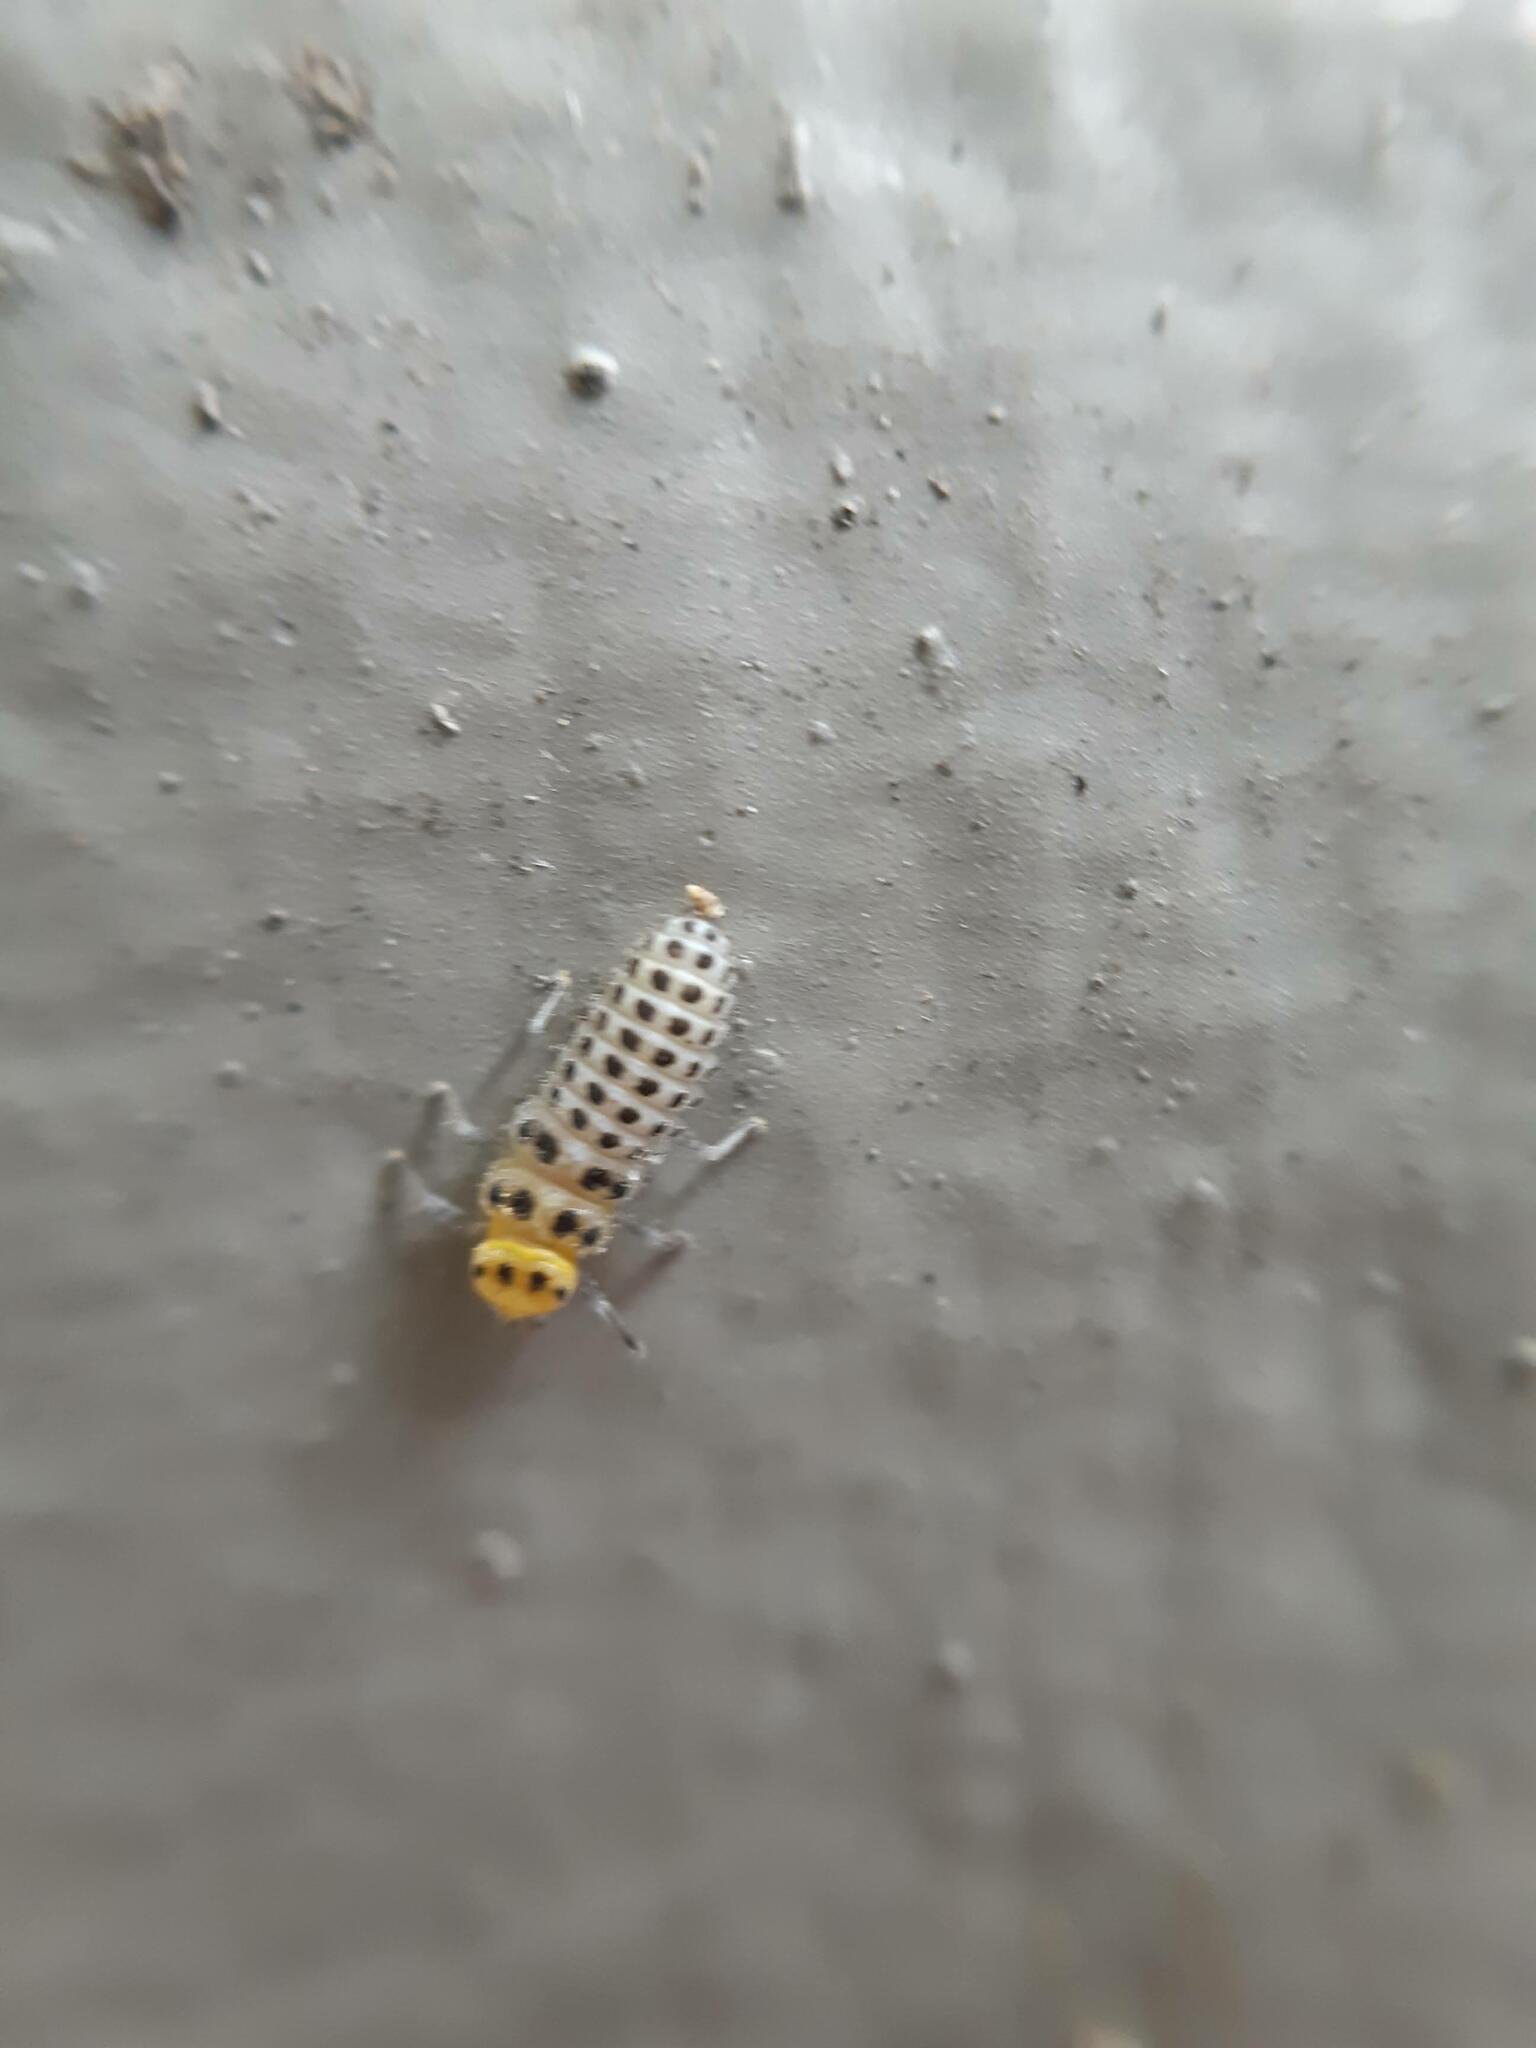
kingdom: Animalia
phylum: Arthropoda
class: Insecta
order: Coleoptera
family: Coccinellidae
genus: Illeis
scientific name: Illeis galbula
